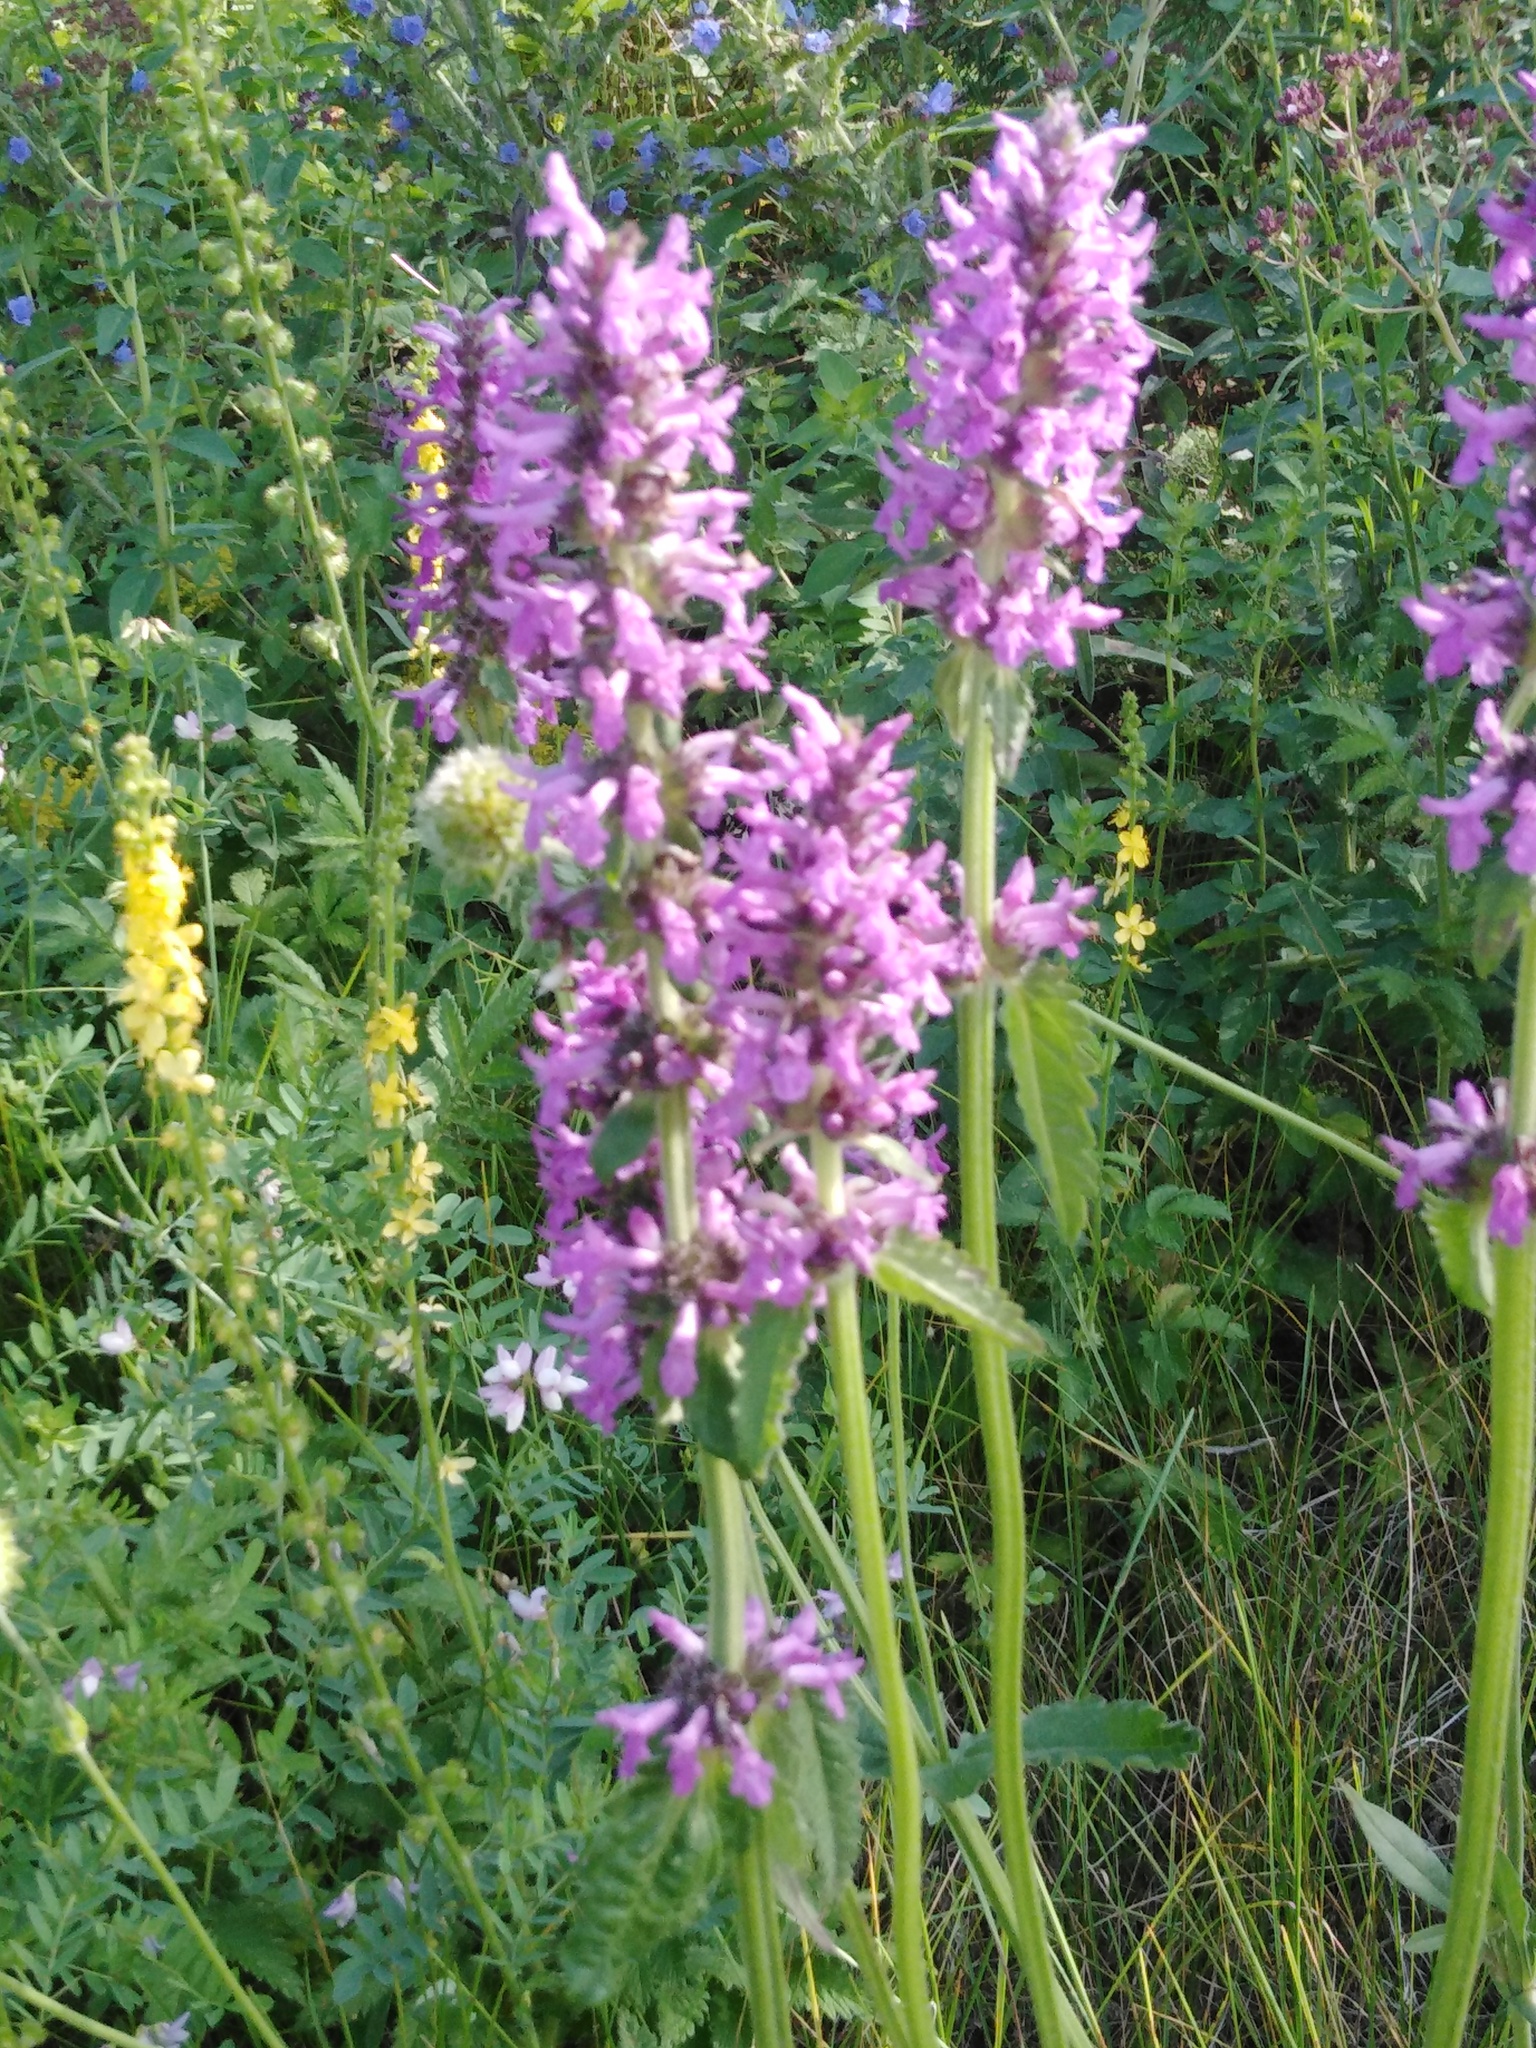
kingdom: Plantae
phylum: Tracheophyta
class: Magnoliopsida
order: Lamiales
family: Lamiaceae
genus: Betonica
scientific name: Betonica officinalis
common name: Bishop's-wort
